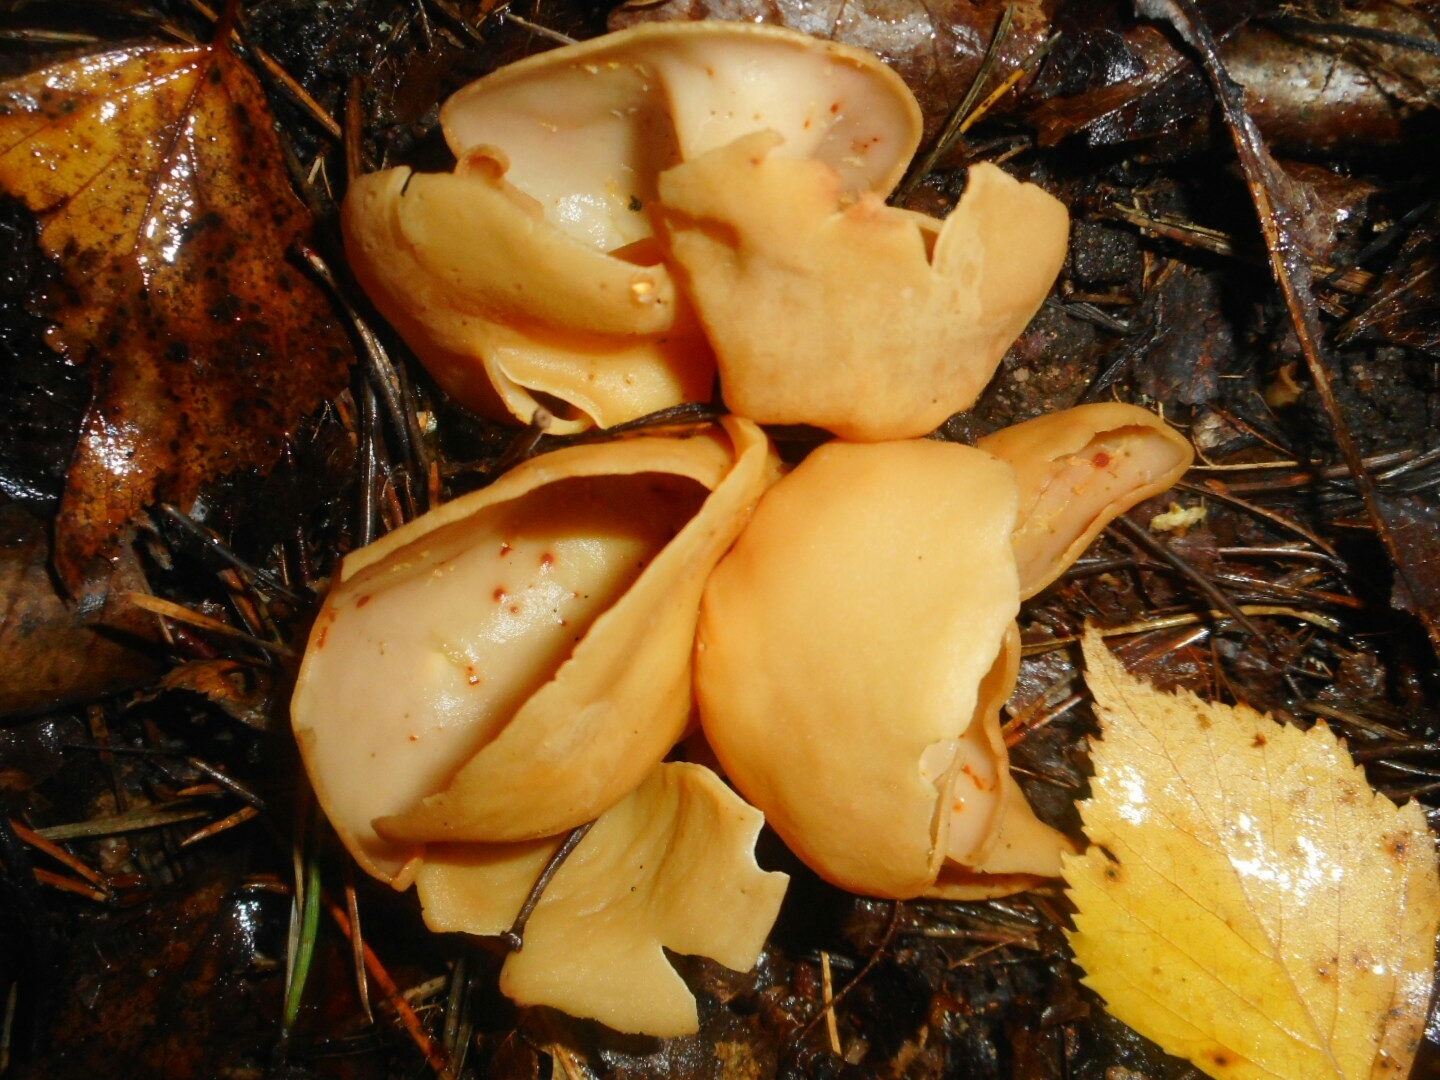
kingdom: Fungi
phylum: Ascomycota
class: Pezizomycetes
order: Pezizales
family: Otideaceae
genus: Otidea
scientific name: Otidea onotica
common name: Hare's ear
